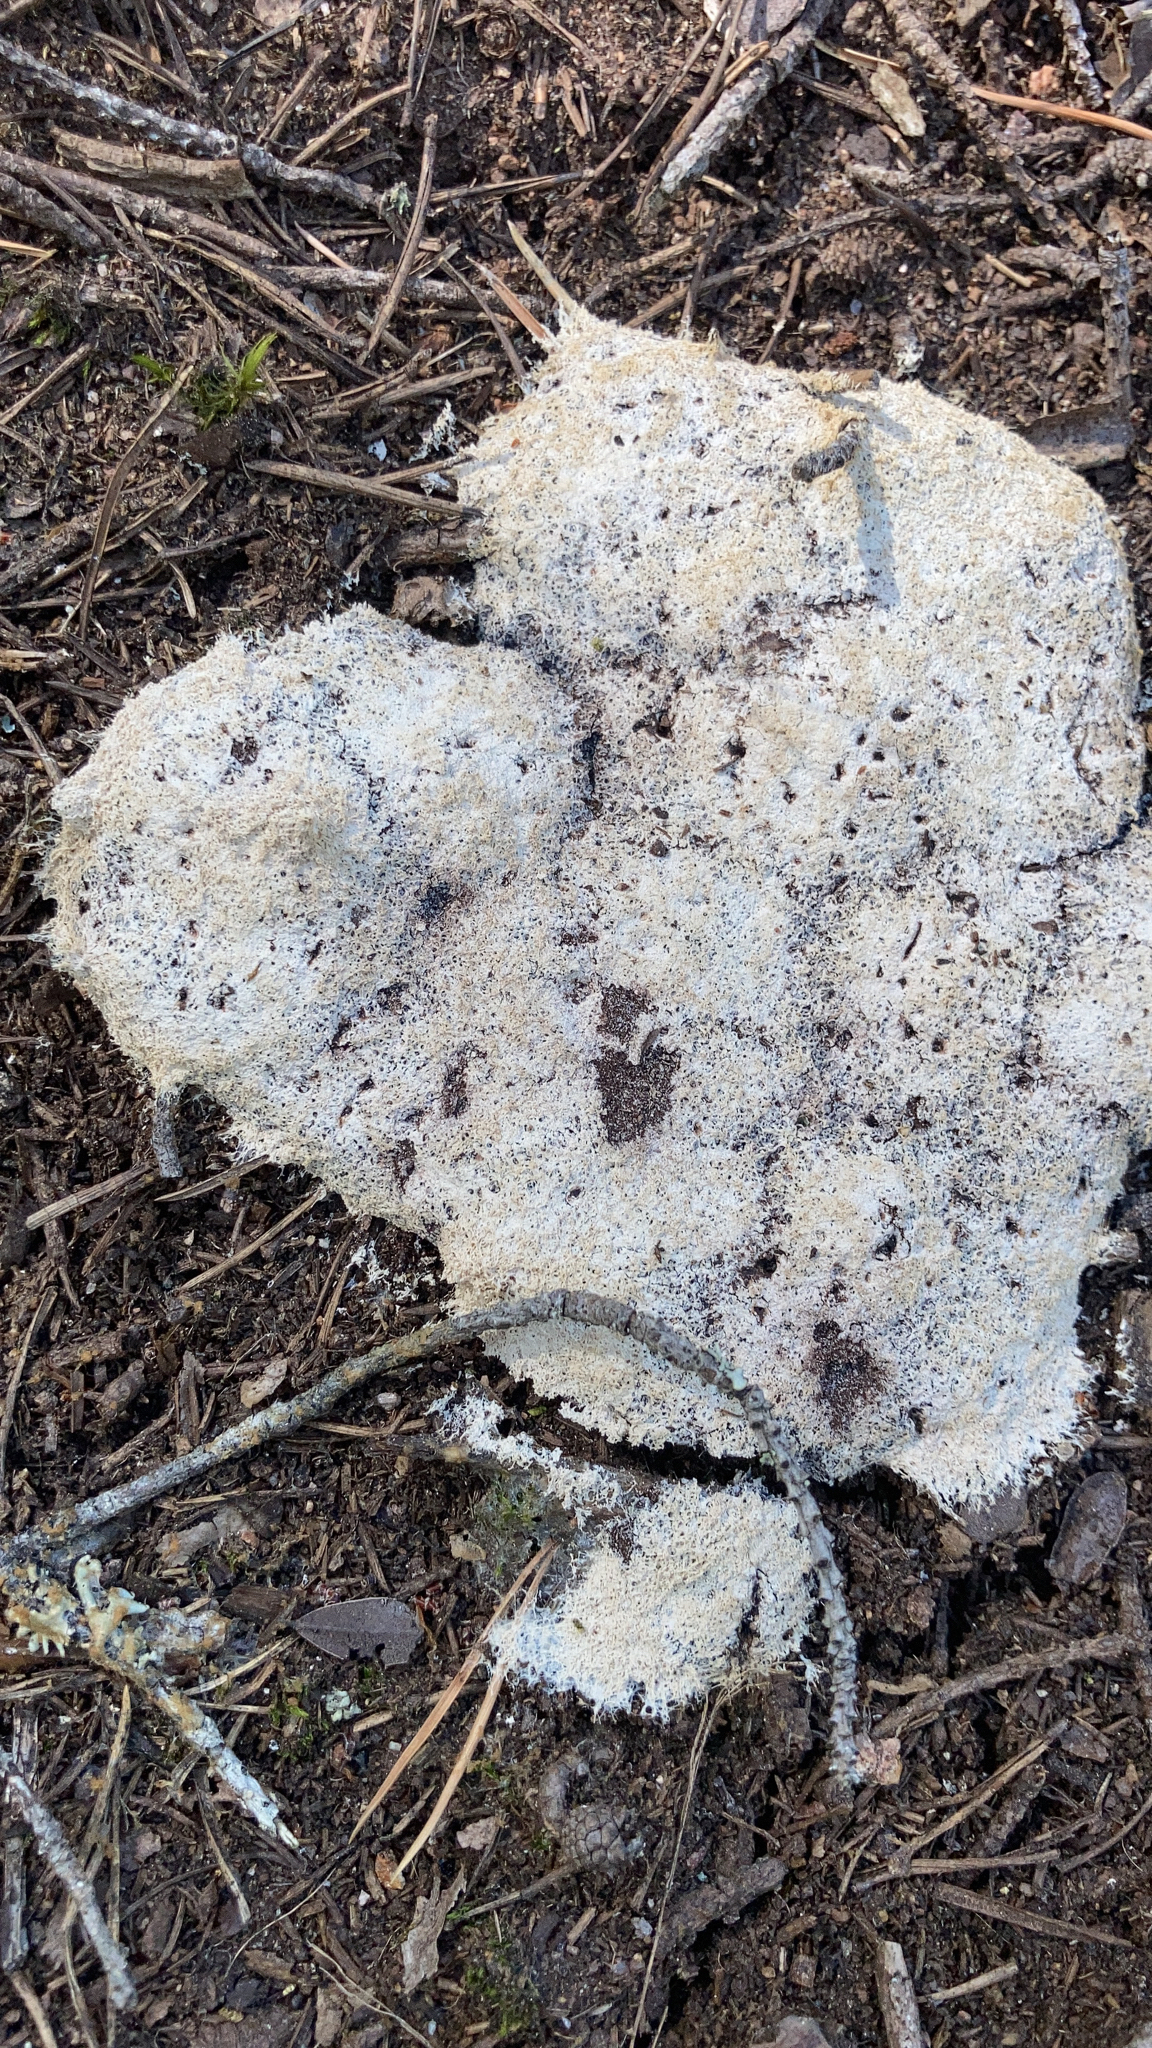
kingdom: Protozoa
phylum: Mycetozoa
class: Myxomycetes
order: Physarales
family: Physaraceae
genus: Fuligo
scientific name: Fuligo septica
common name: Dog vomit slime mold
